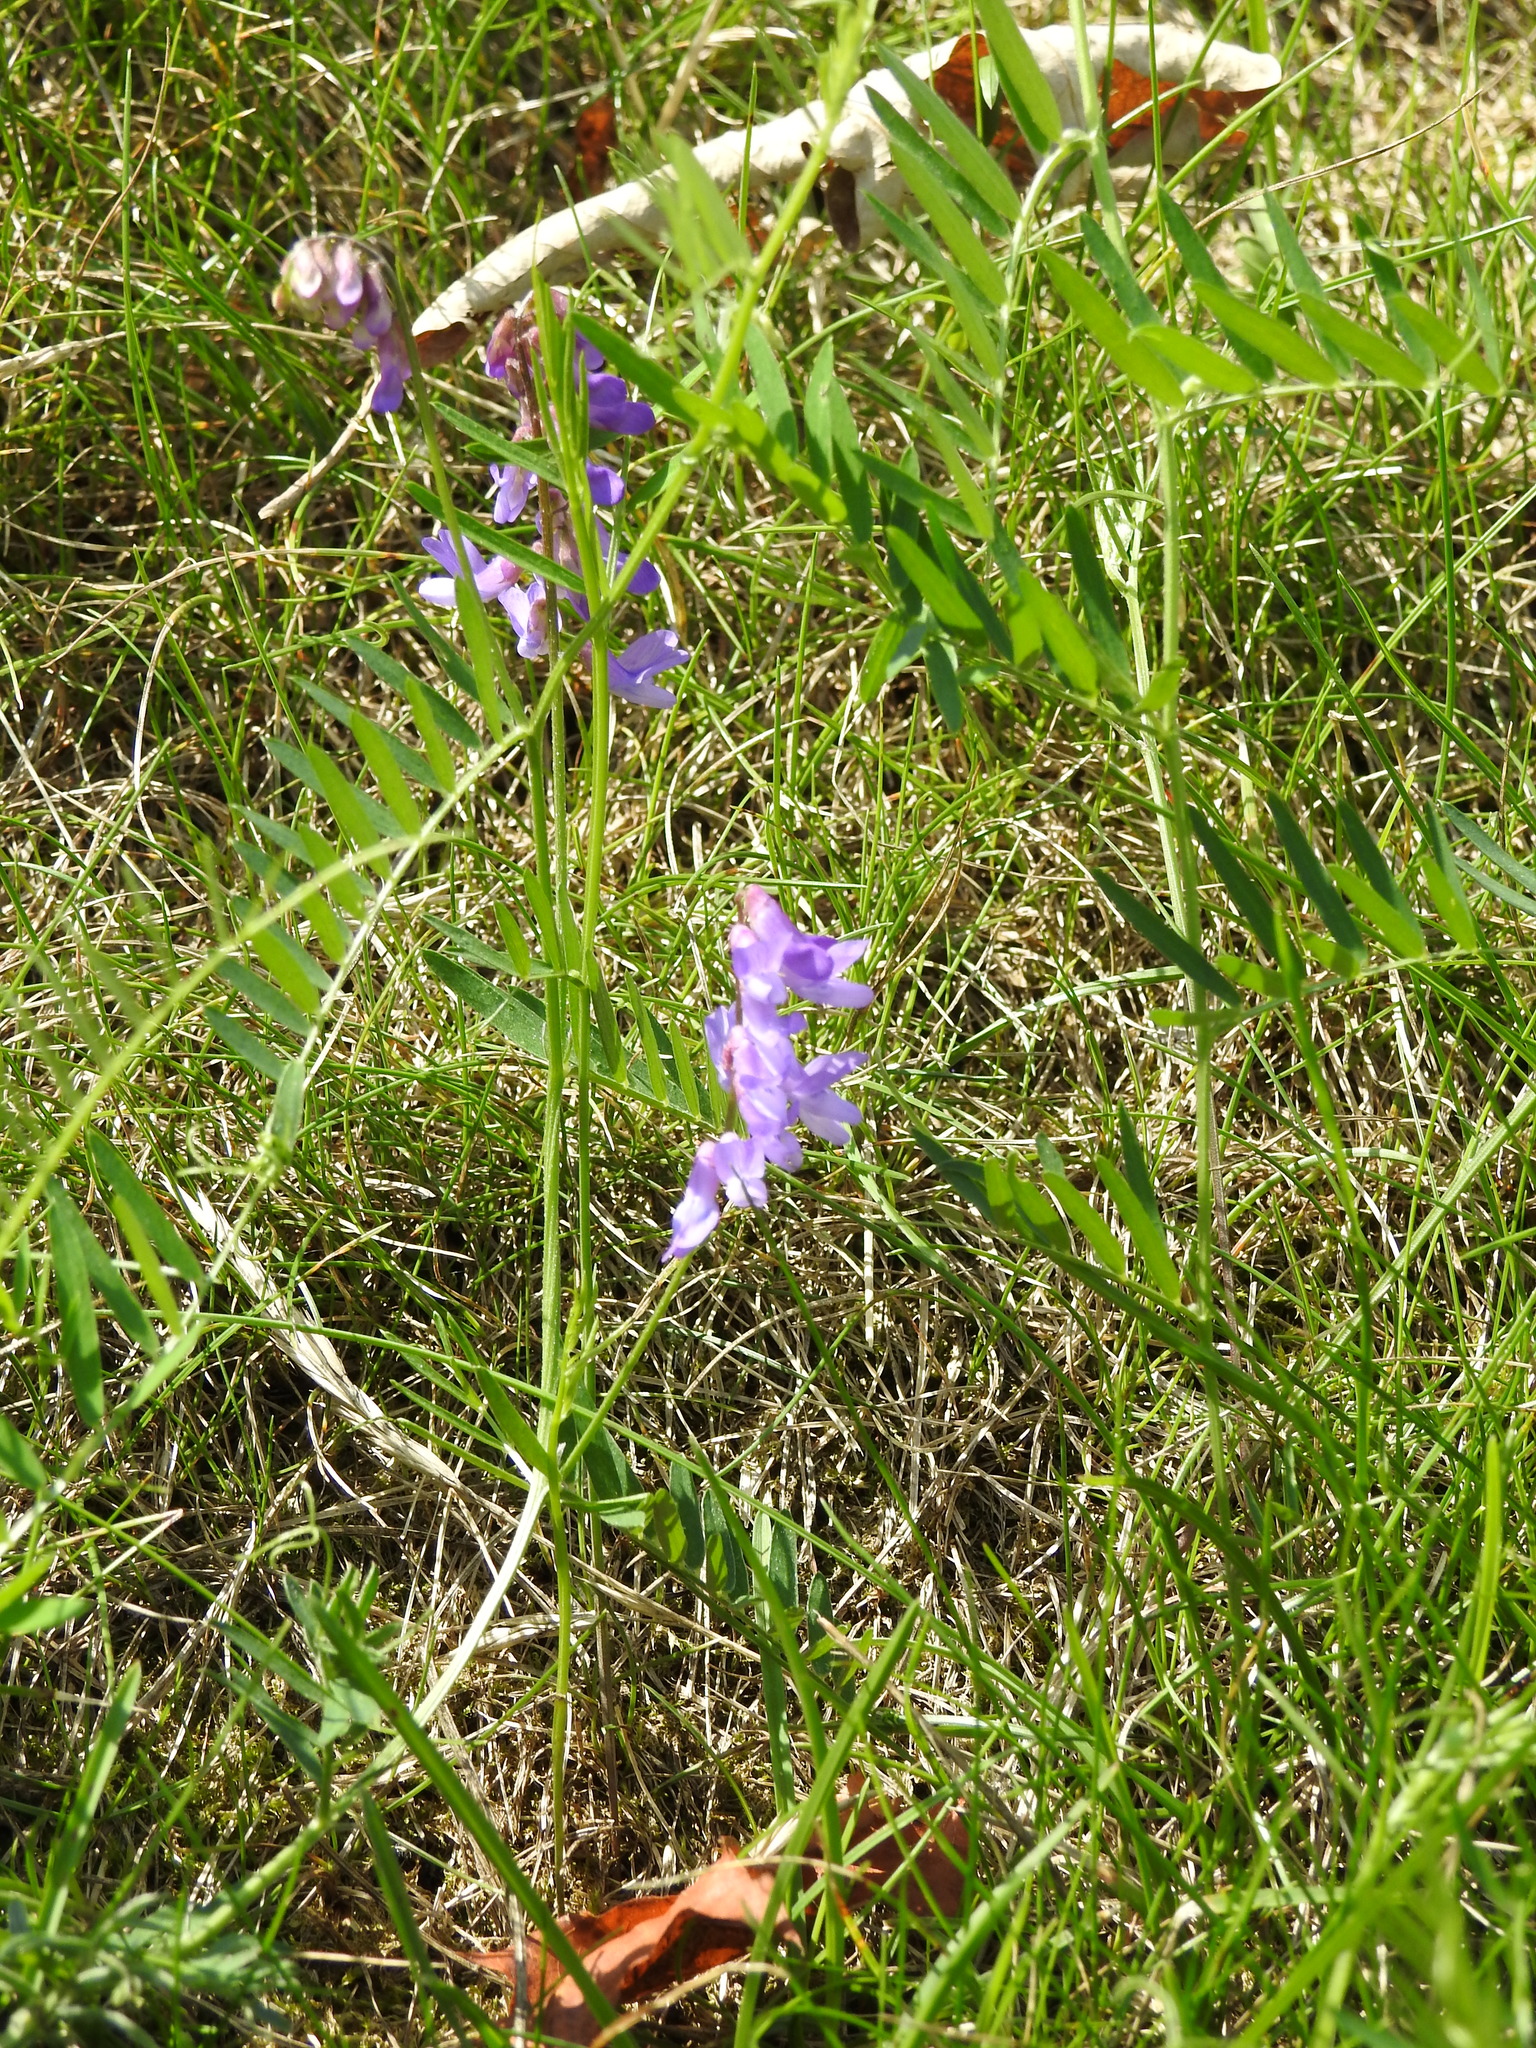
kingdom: Plantae
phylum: Tracheophyta
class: Magnoliopsida
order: Fabales
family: Fabaceae
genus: Vicia
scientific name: Vicia cracca
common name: Bird vetch
